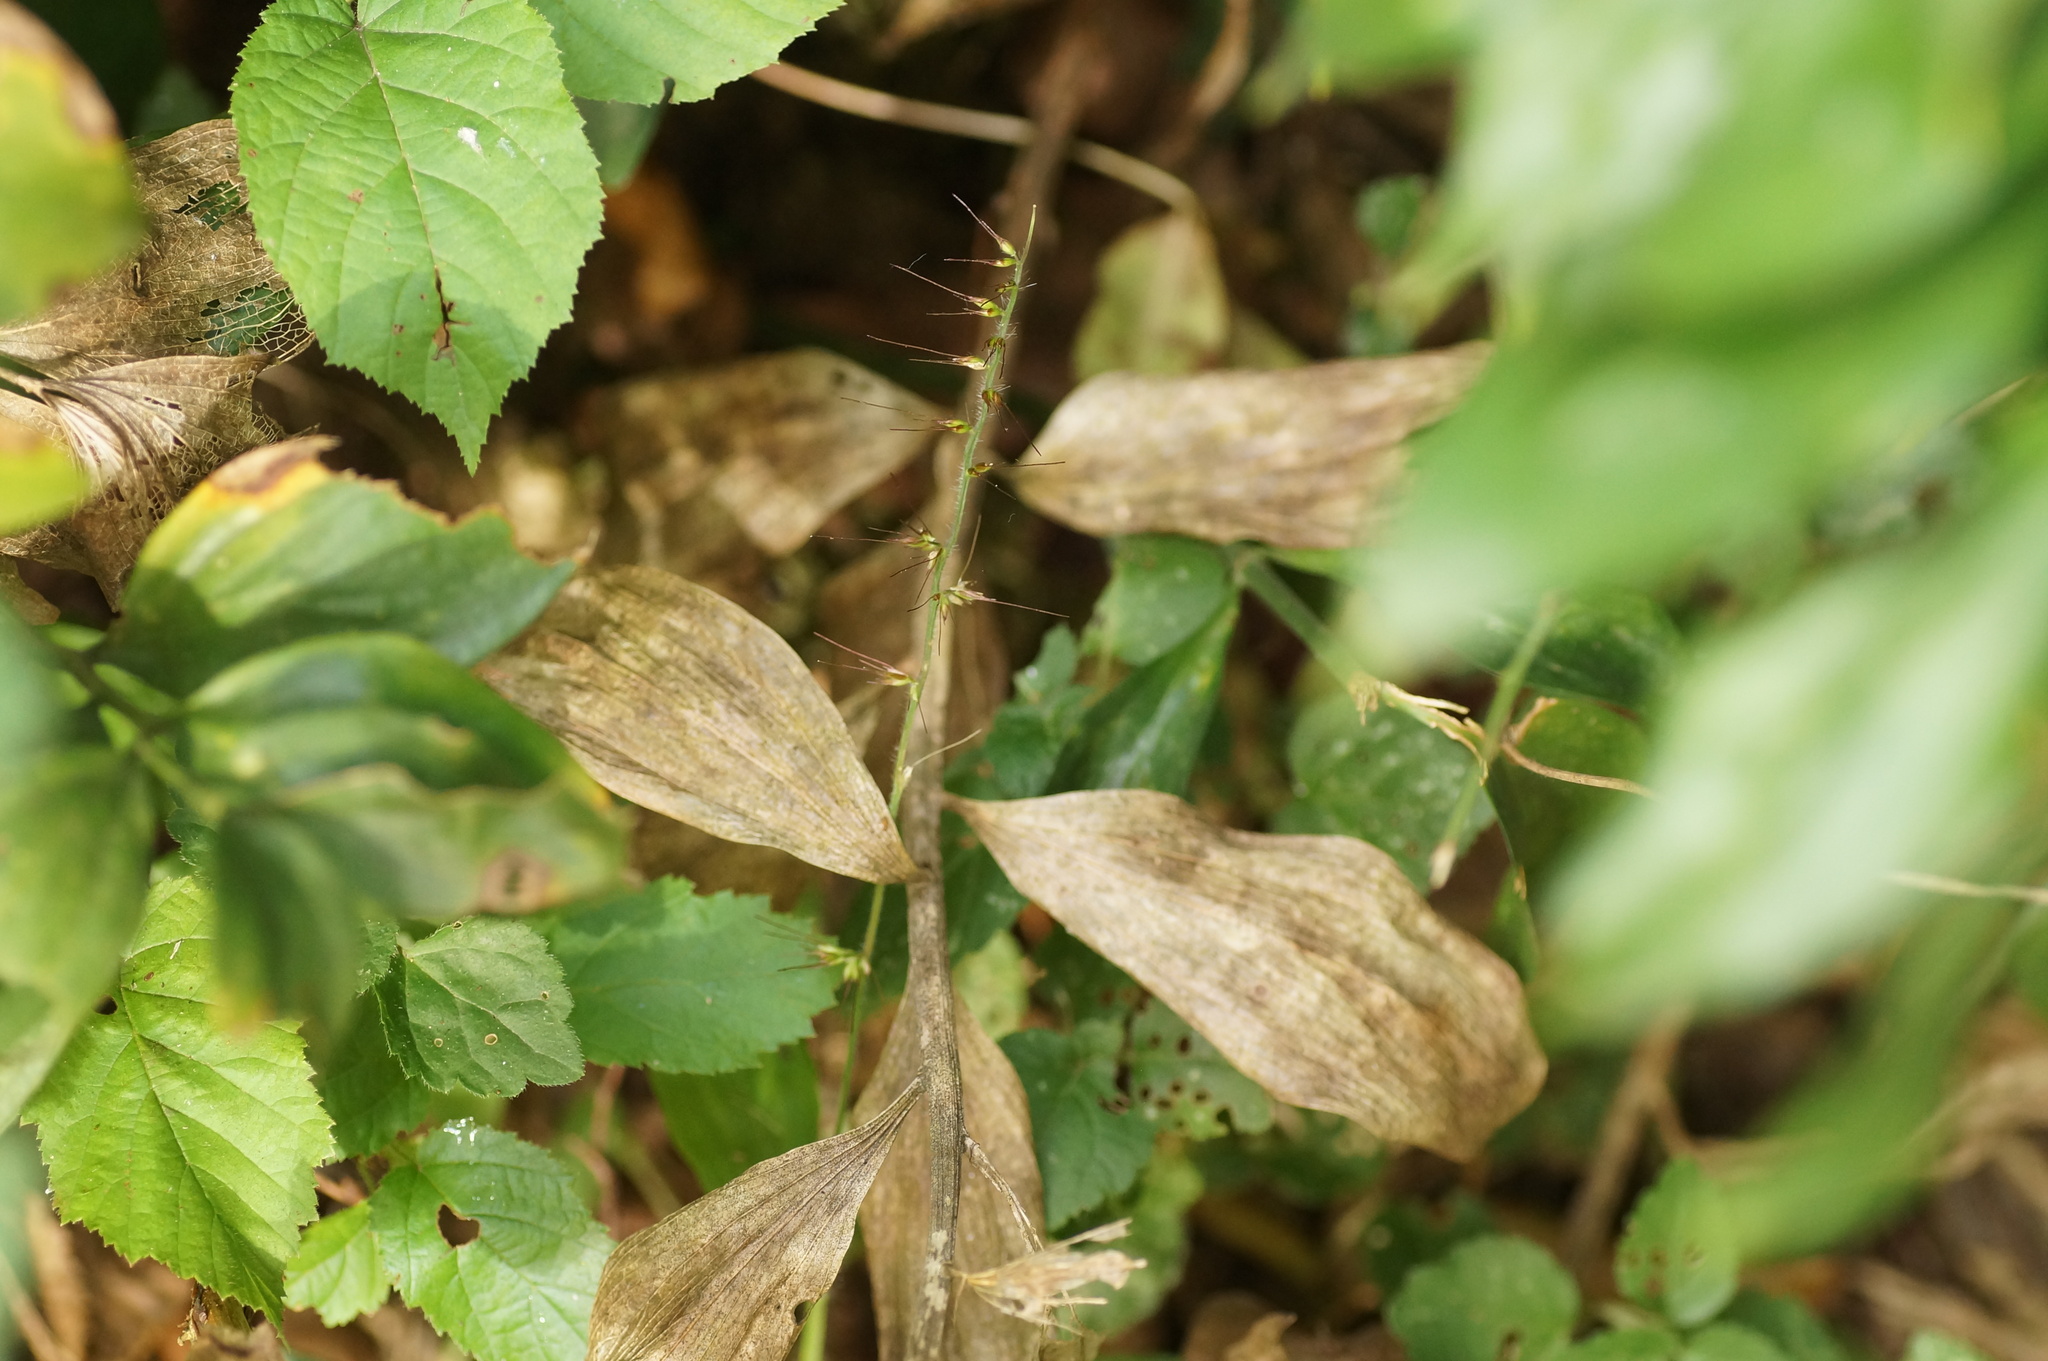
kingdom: Plantae
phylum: Tracheophyta
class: Liliopsida
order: Poales
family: Poaceae
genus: Oplismenus
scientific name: Oplismenus undulatifolius
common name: Wavyleaf basketgrass
